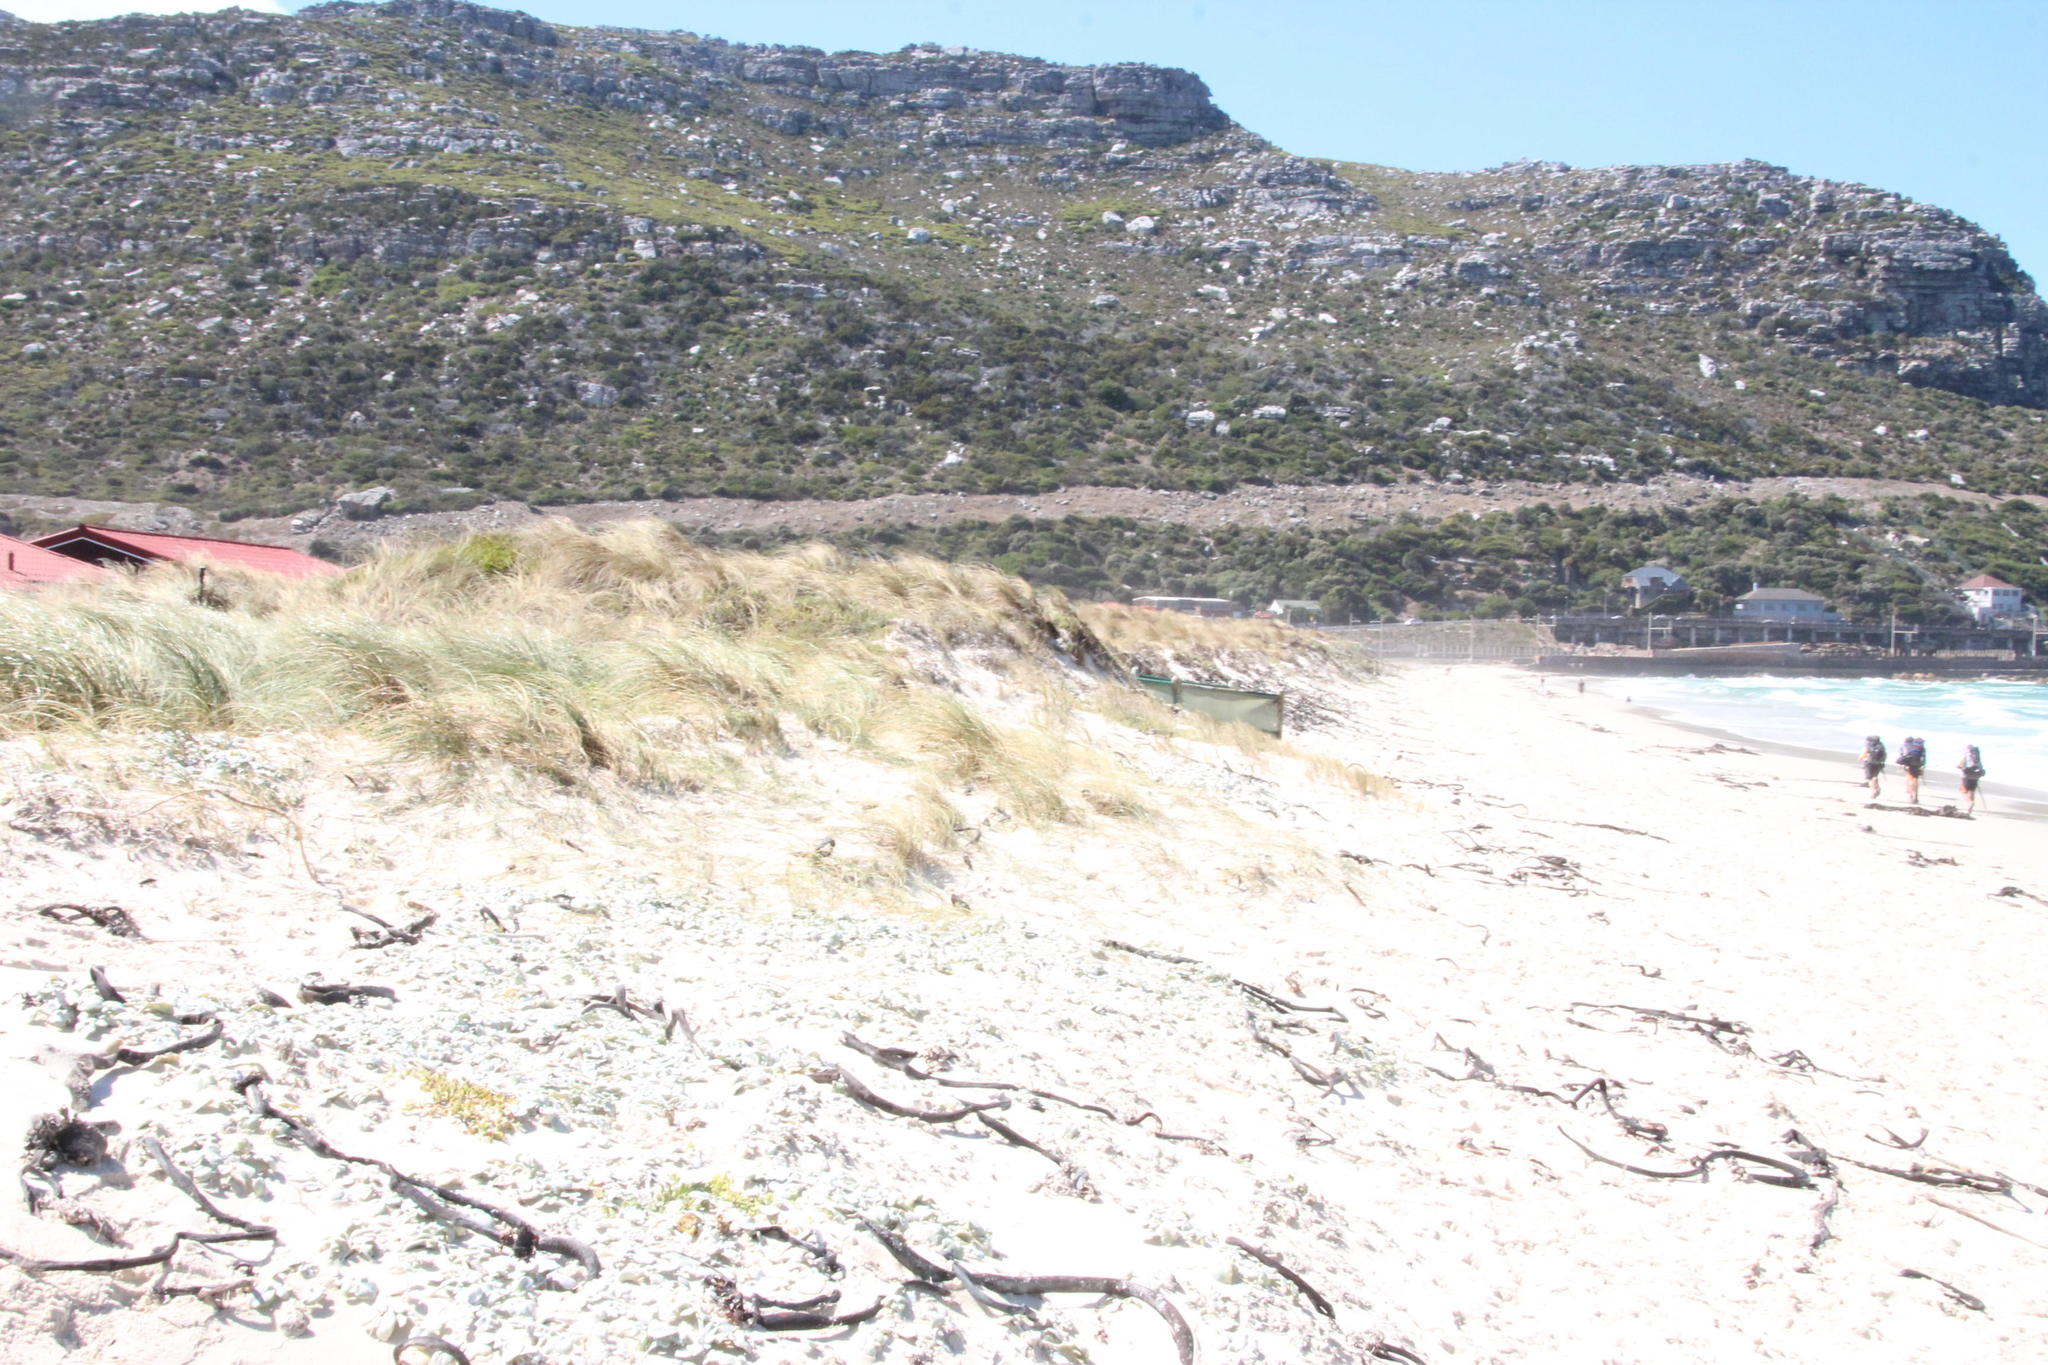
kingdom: Plantae
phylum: Tracheophyta
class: Liliopsida
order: Poales
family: Poaceae
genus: Calamagrostis
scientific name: Calamagrostis arenaria
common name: European beachgrass
